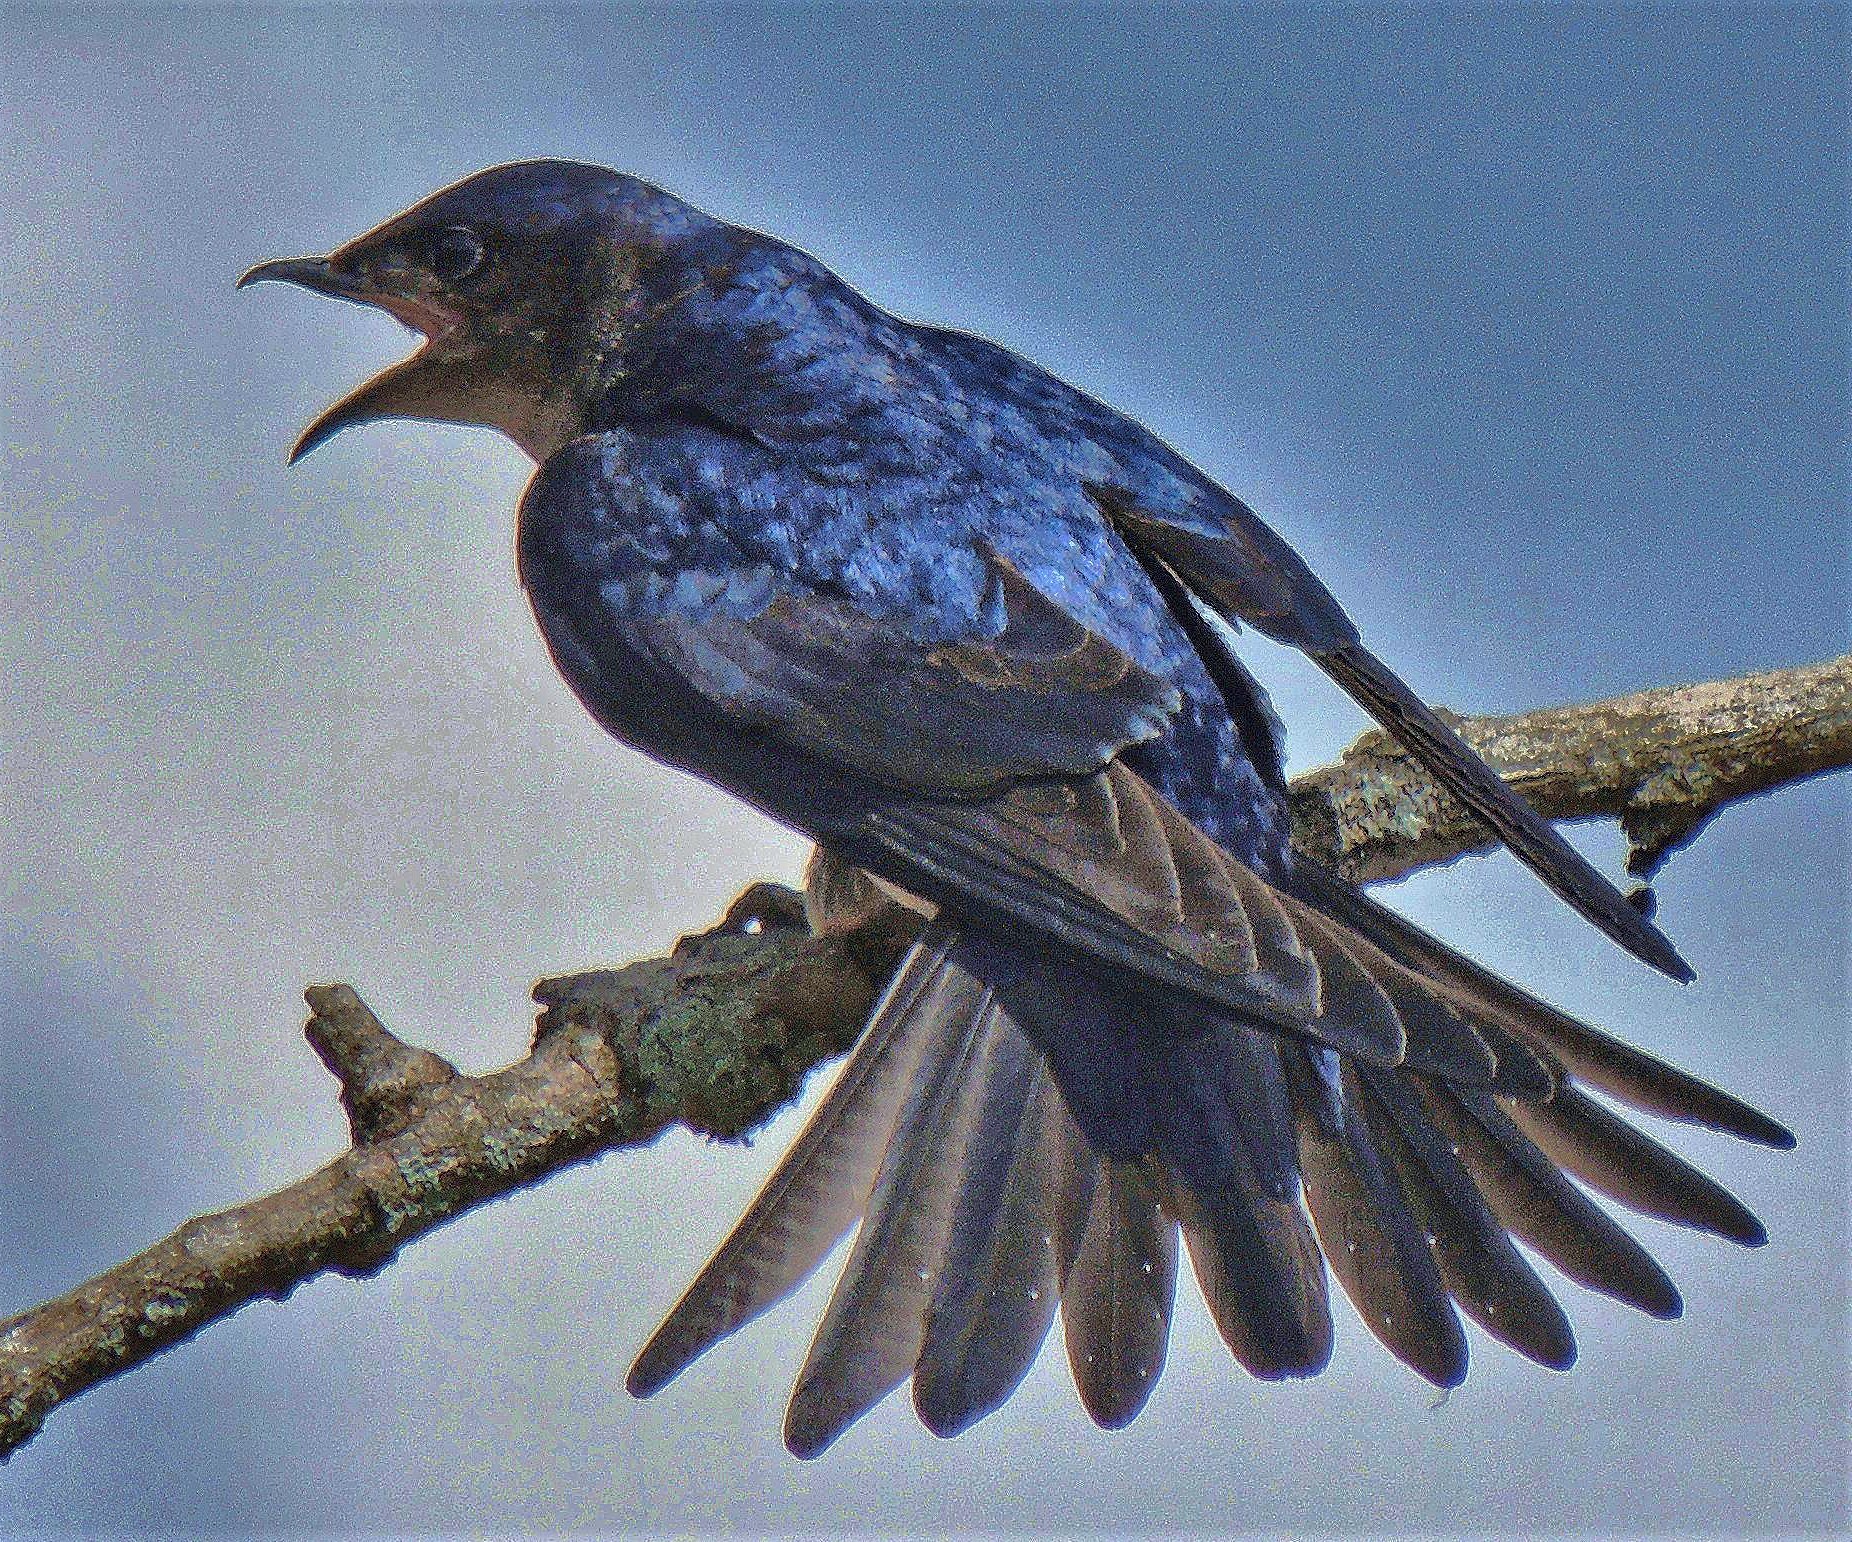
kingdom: Animalia
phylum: Chordata
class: Aves
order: Passeriformes
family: Hirundinidae
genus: Progne
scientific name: Progne chalybea
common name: Grey-breasted martin
